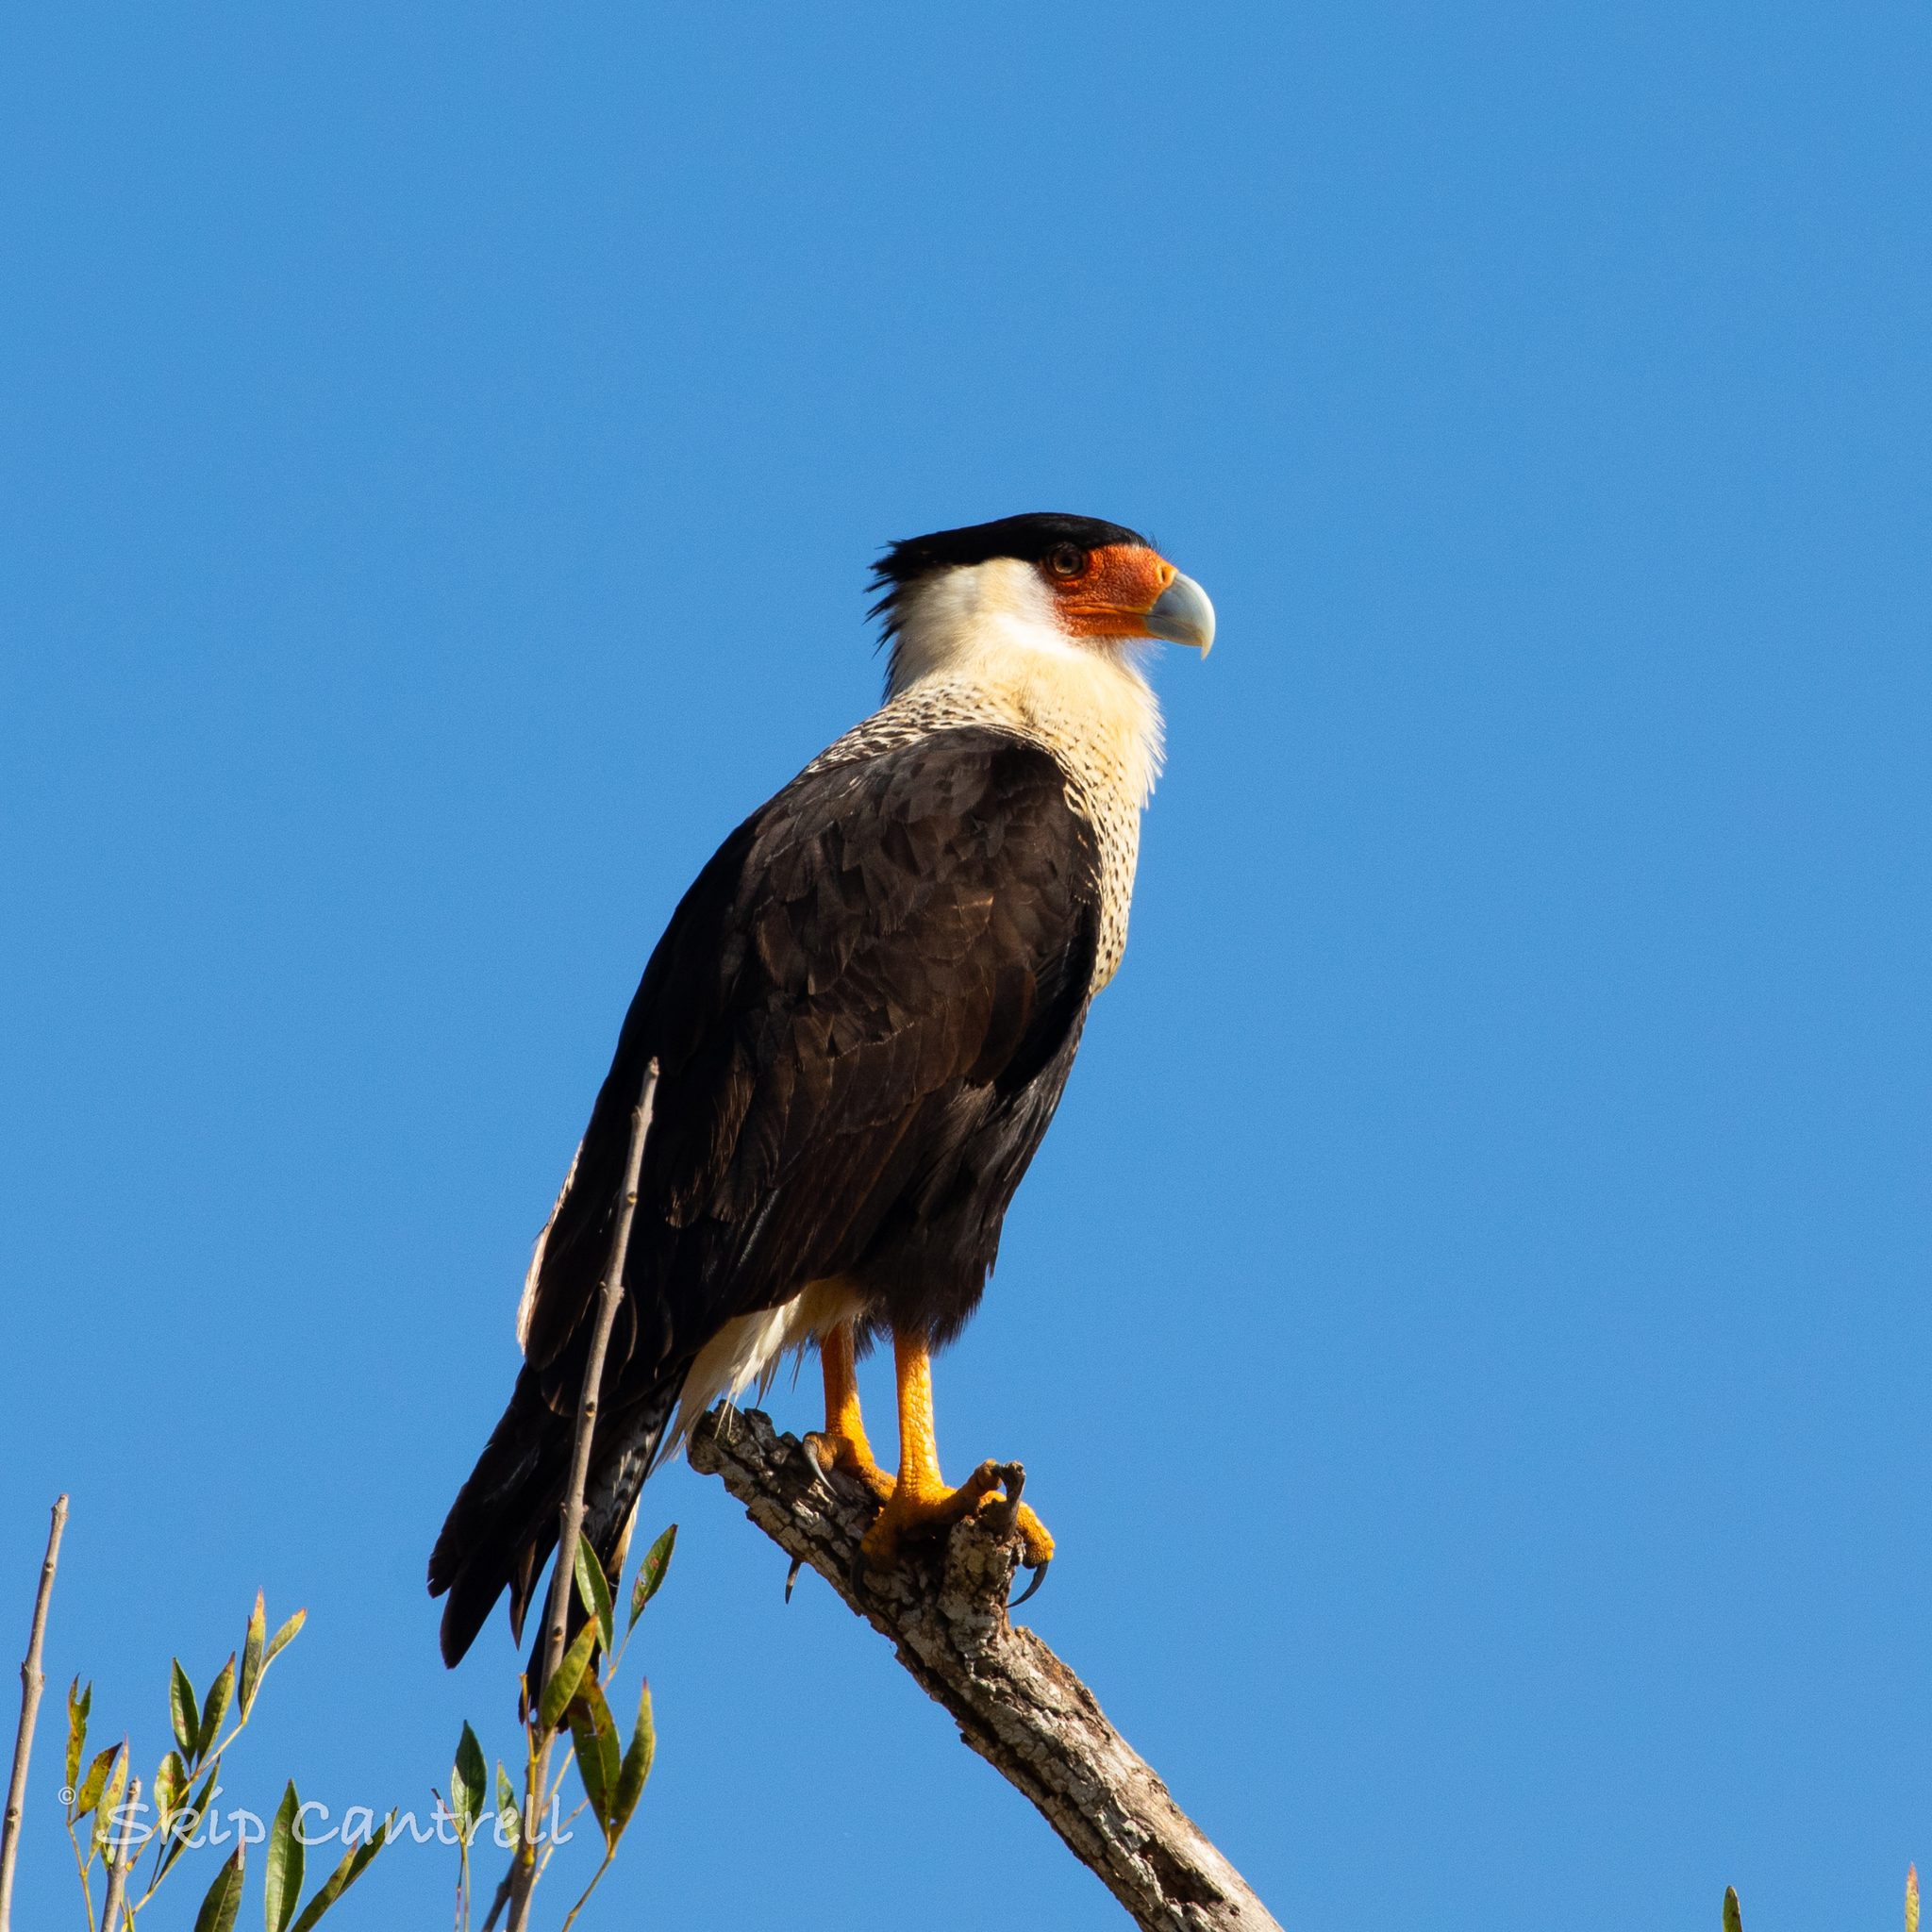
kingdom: Animalia
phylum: Chordata
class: Aves
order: Falconiformes
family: Falconidae
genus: Caracara
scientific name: Caracara plancus
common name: Southern caracara
